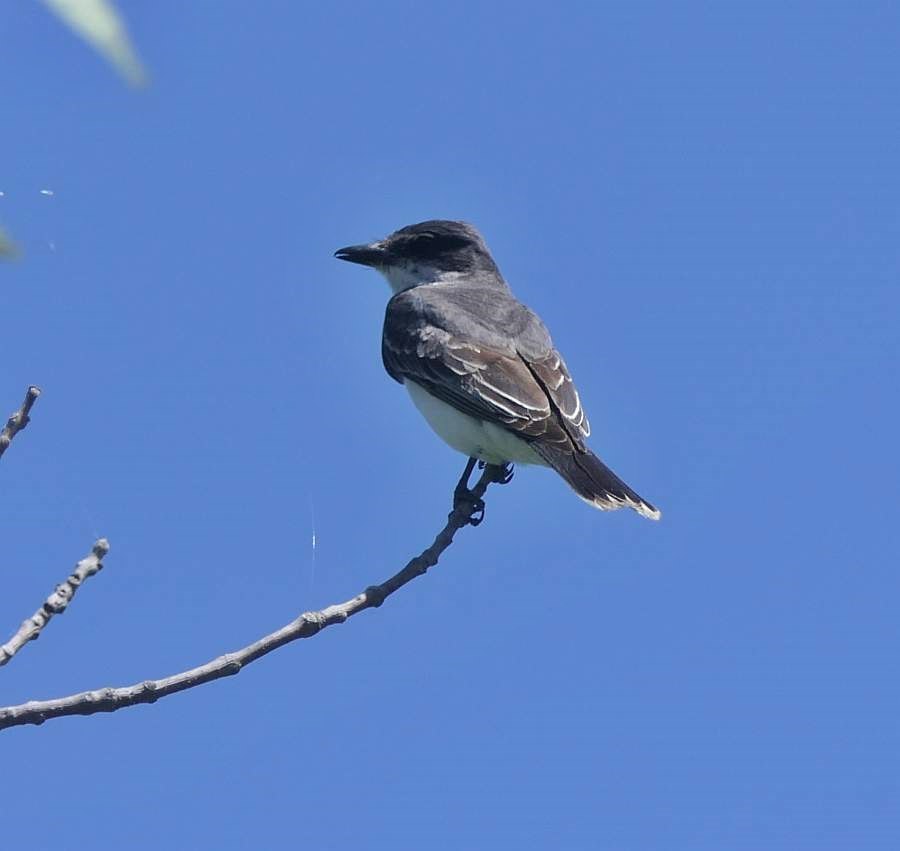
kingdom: Animalia
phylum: Chordata
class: Aves
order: Passeriformes
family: Tyrannidae
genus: Tyrannus
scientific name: Tyrannus tyrannus
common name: Eastern kingbird
